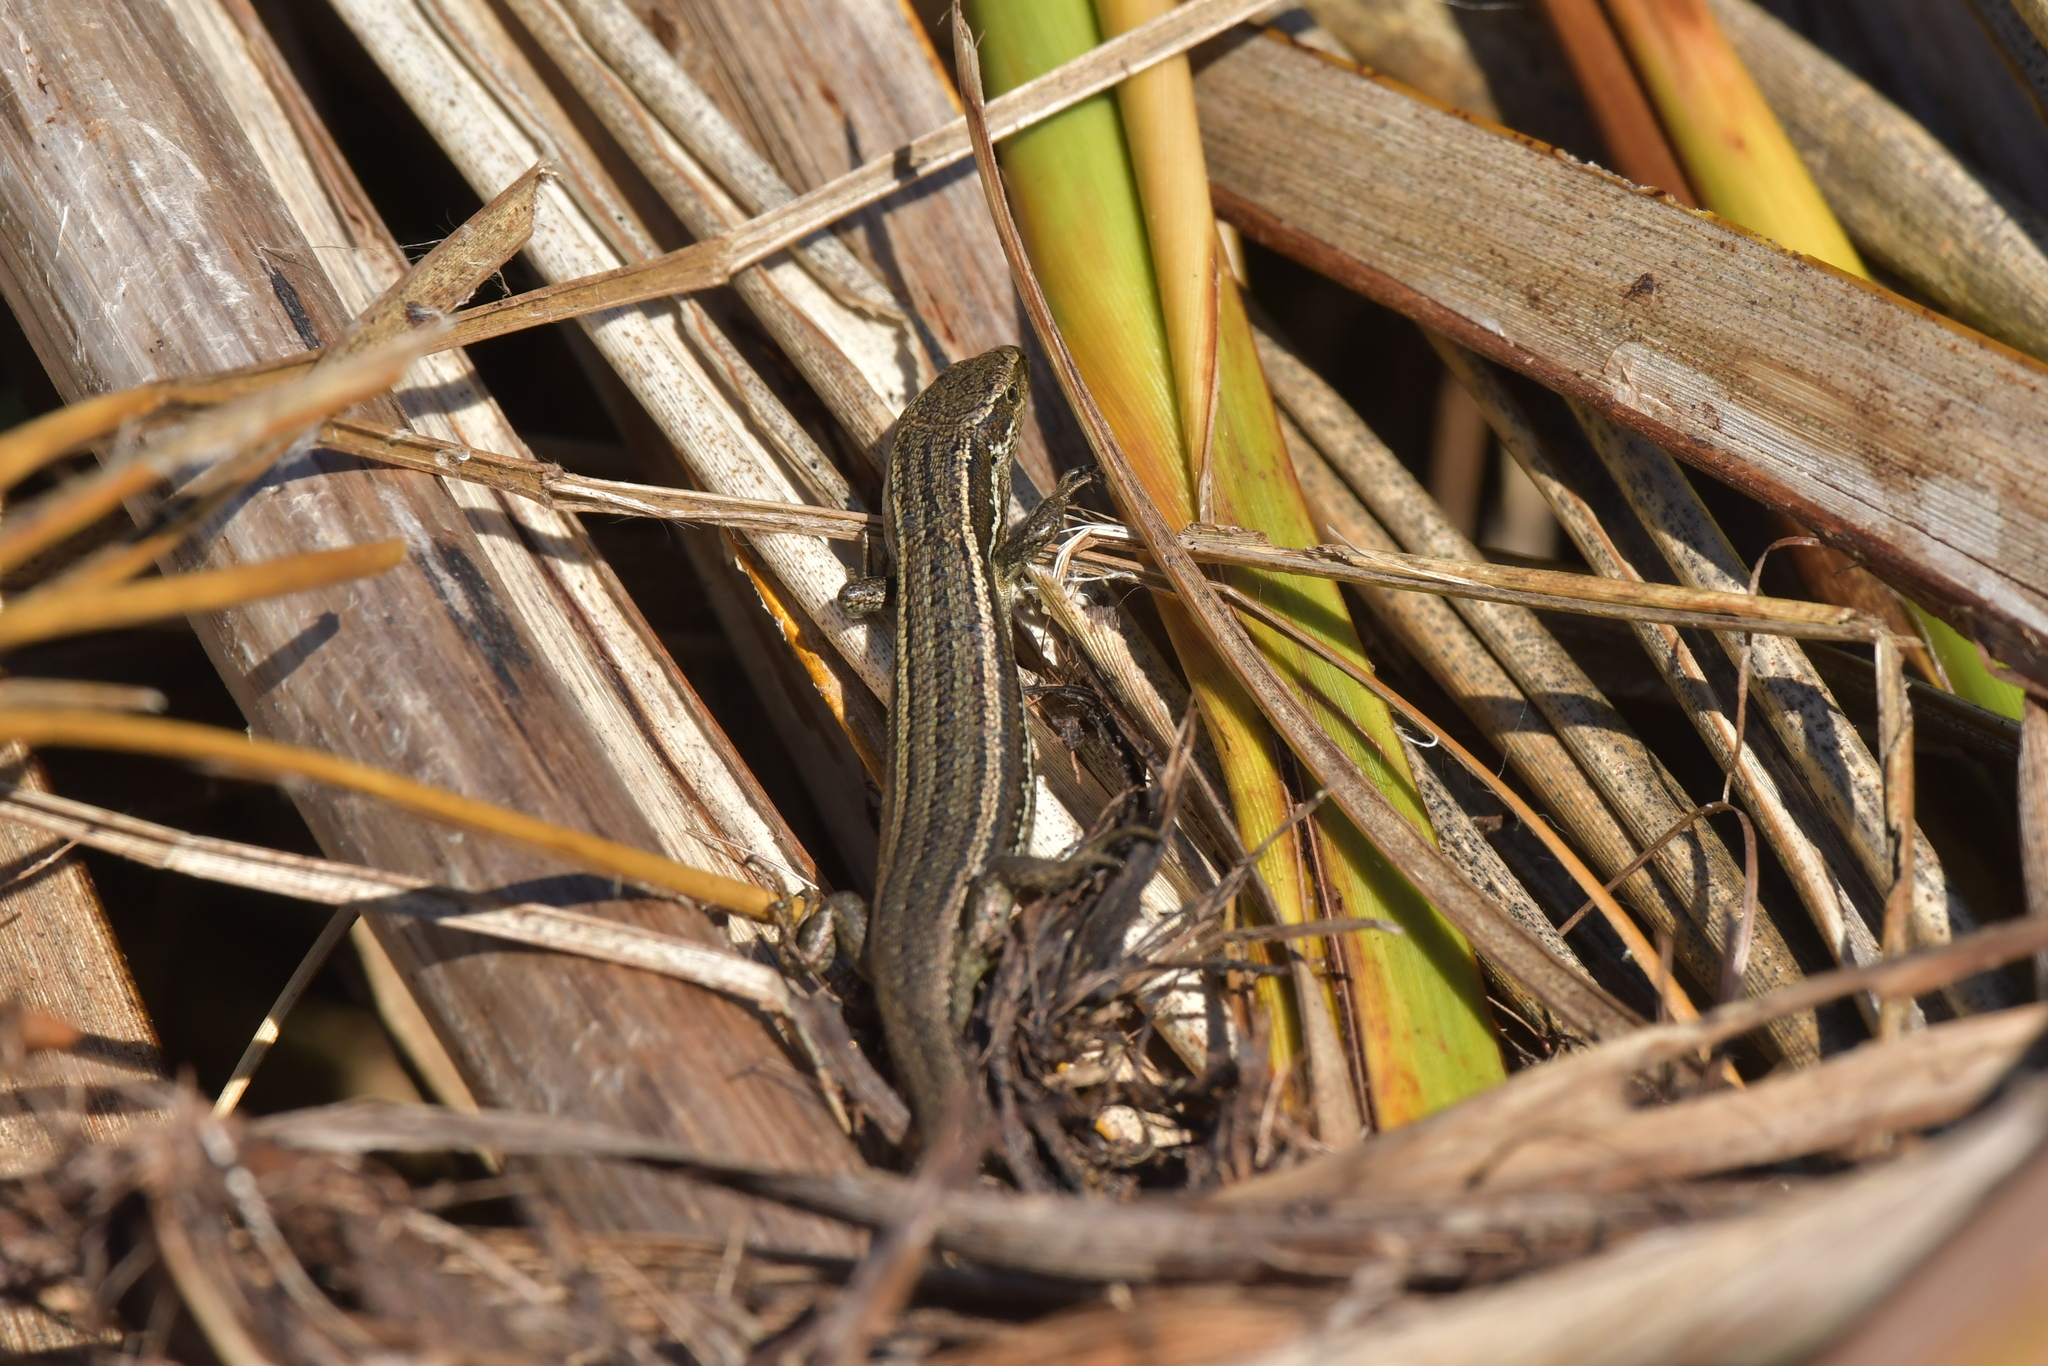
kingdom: Animalia
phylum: Chordata
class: Squamata
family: Scincidae
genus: Oligosoma
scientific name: Oligosoma polychroma
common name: Common new zealand skink
